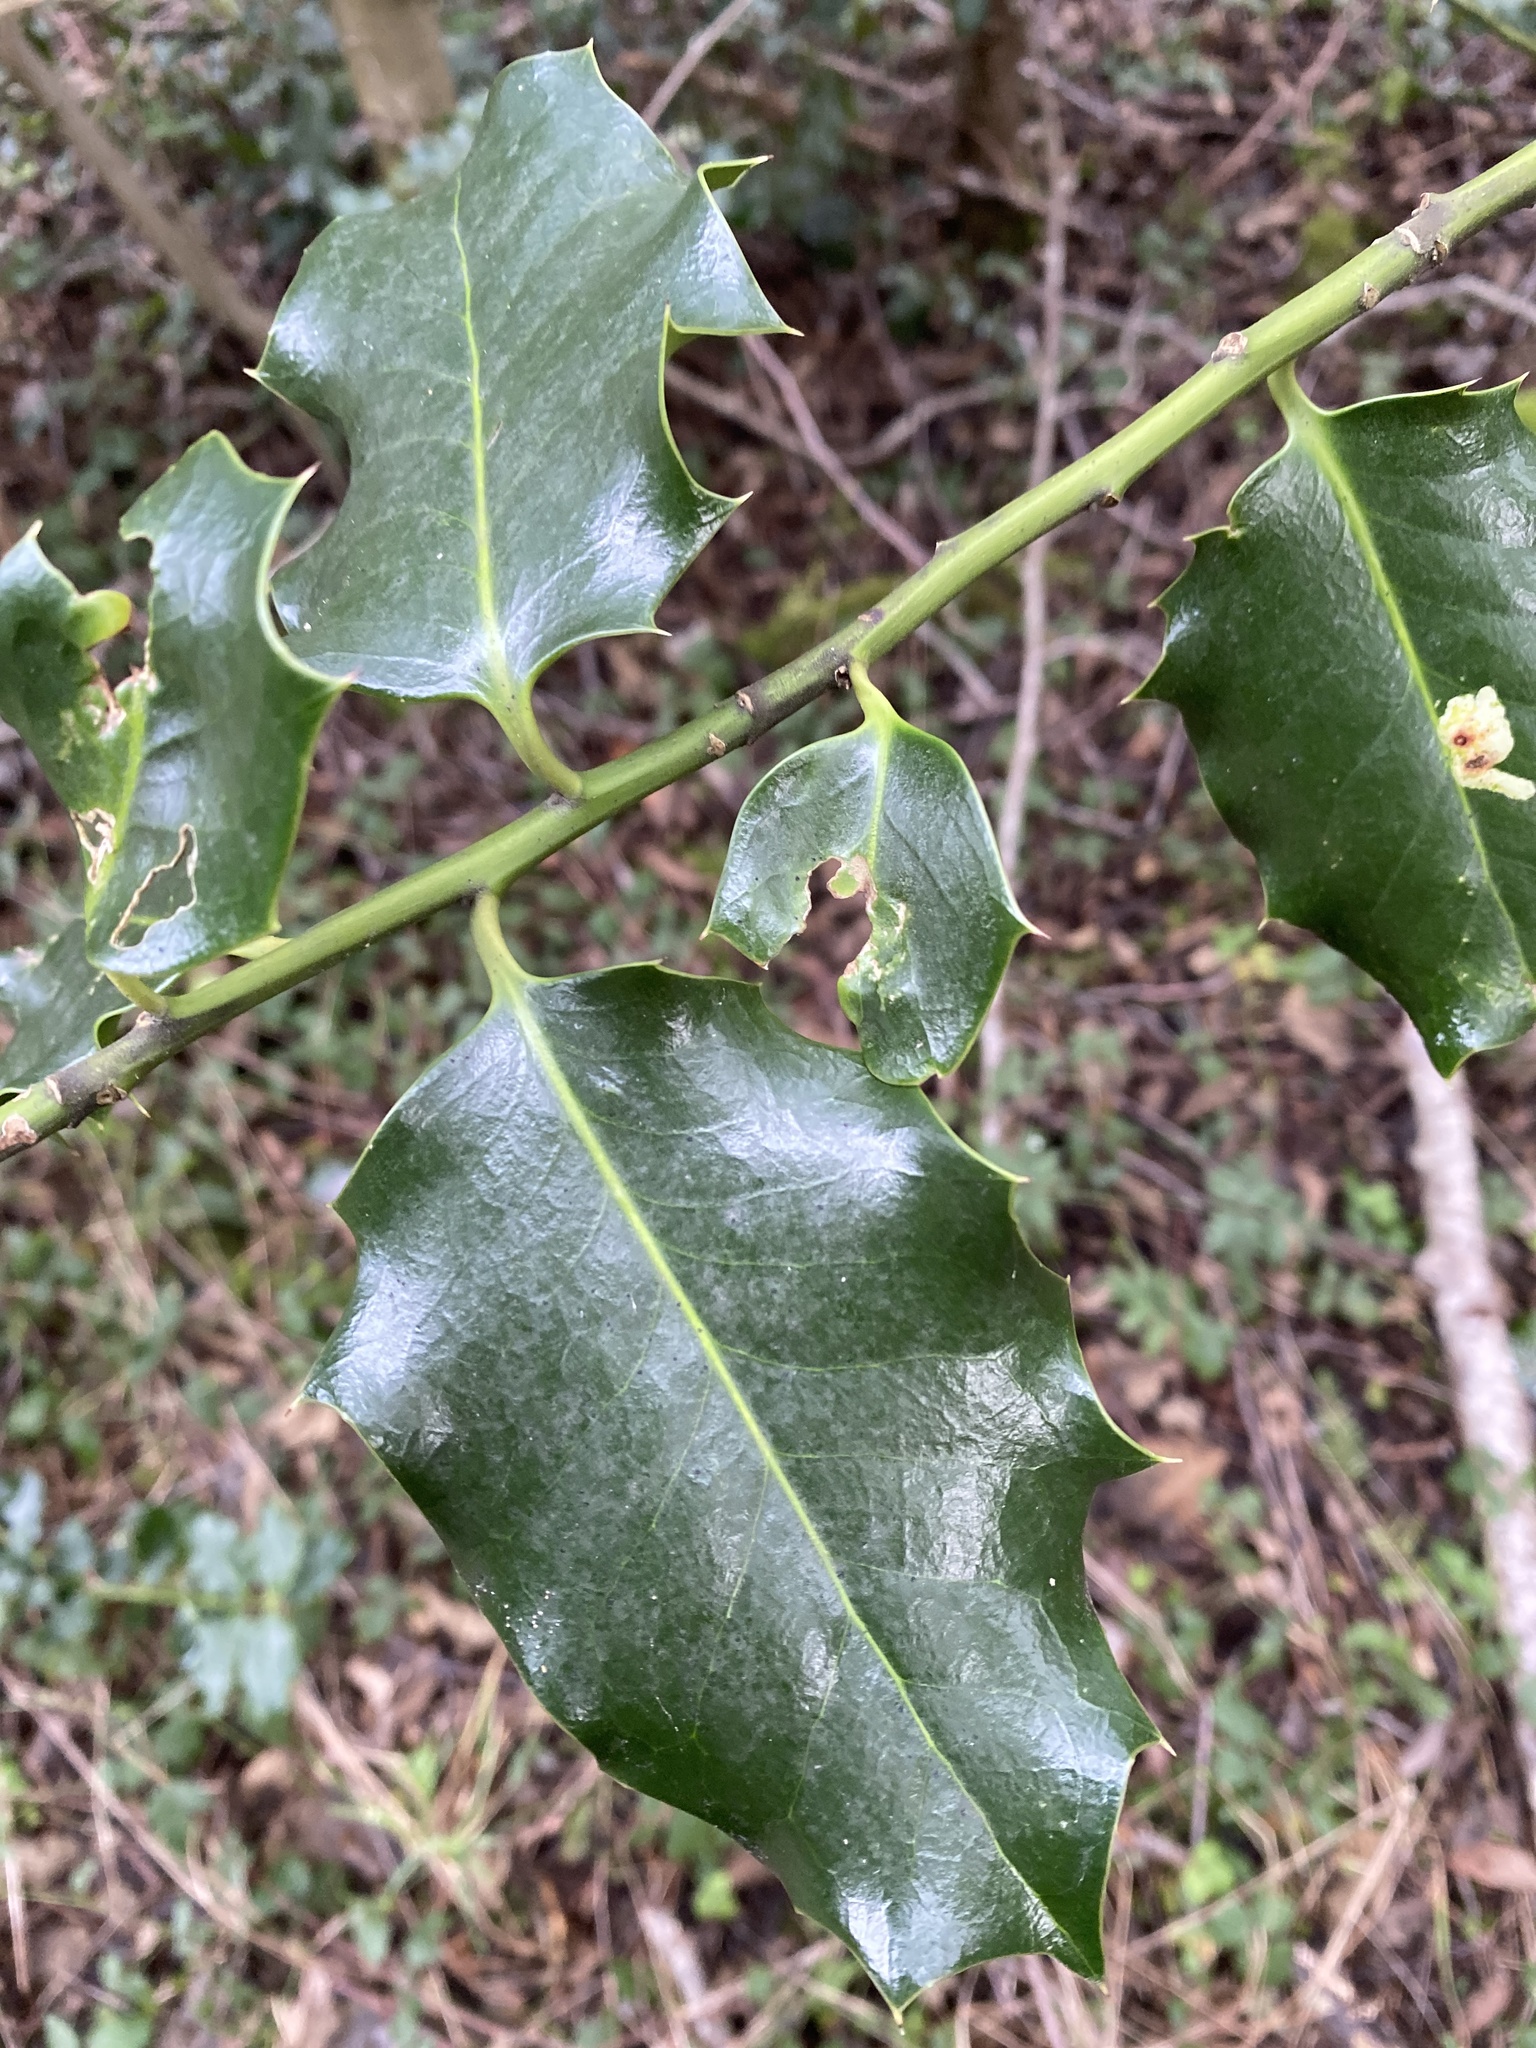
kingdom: Plantae
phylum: Tracheophyta
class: Magnoliopsida
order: Aquifoliales
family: Aquifoliaceae
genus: Ilex
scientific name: Ilex aquifolium
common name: English holly
